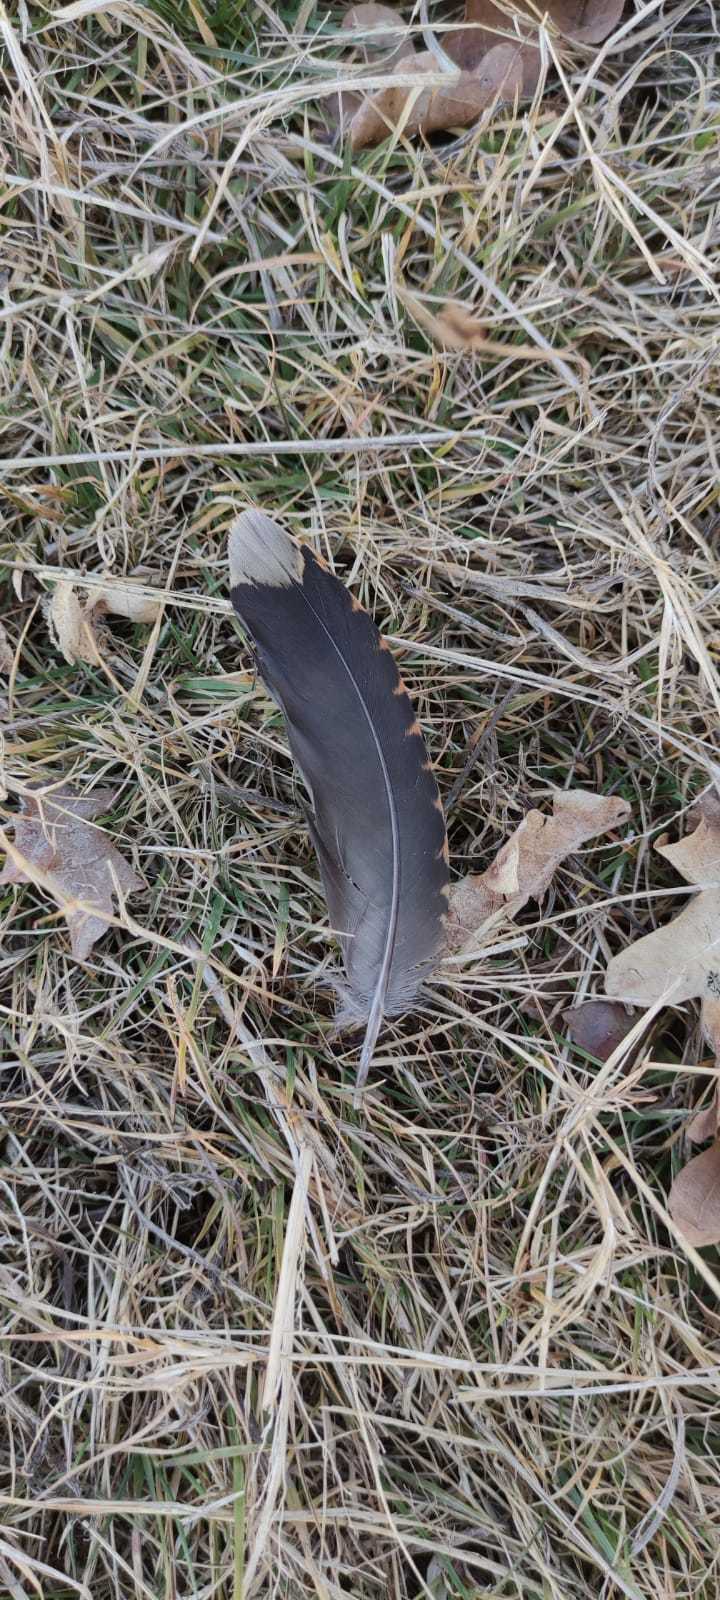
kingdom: Animalia
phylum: Chordata
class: Aves
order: Charadriiformes
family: Scolopacidae
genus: Scolopax
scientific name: Scolopax rusticola
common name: Eurasian woodcock
